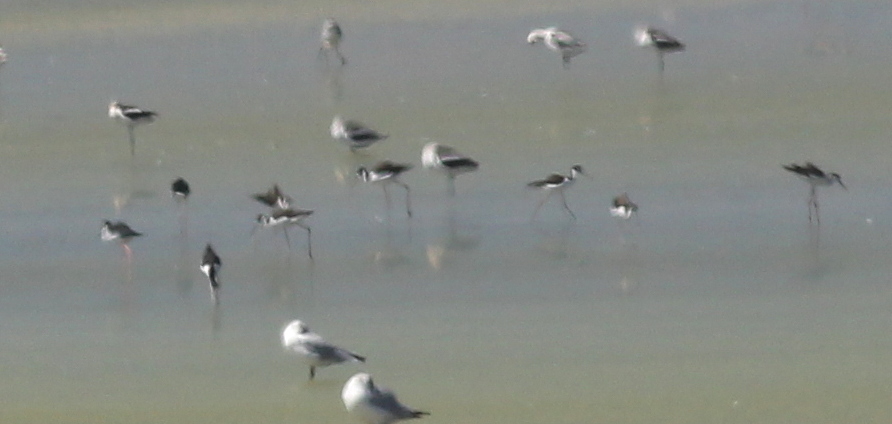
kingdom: Animalia
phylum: Chordata
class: Aves
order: Charadriiformes
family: Recurvirostridae
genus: Himantopus
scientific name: Himantopus mexicanus
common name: Black-necked stilt
